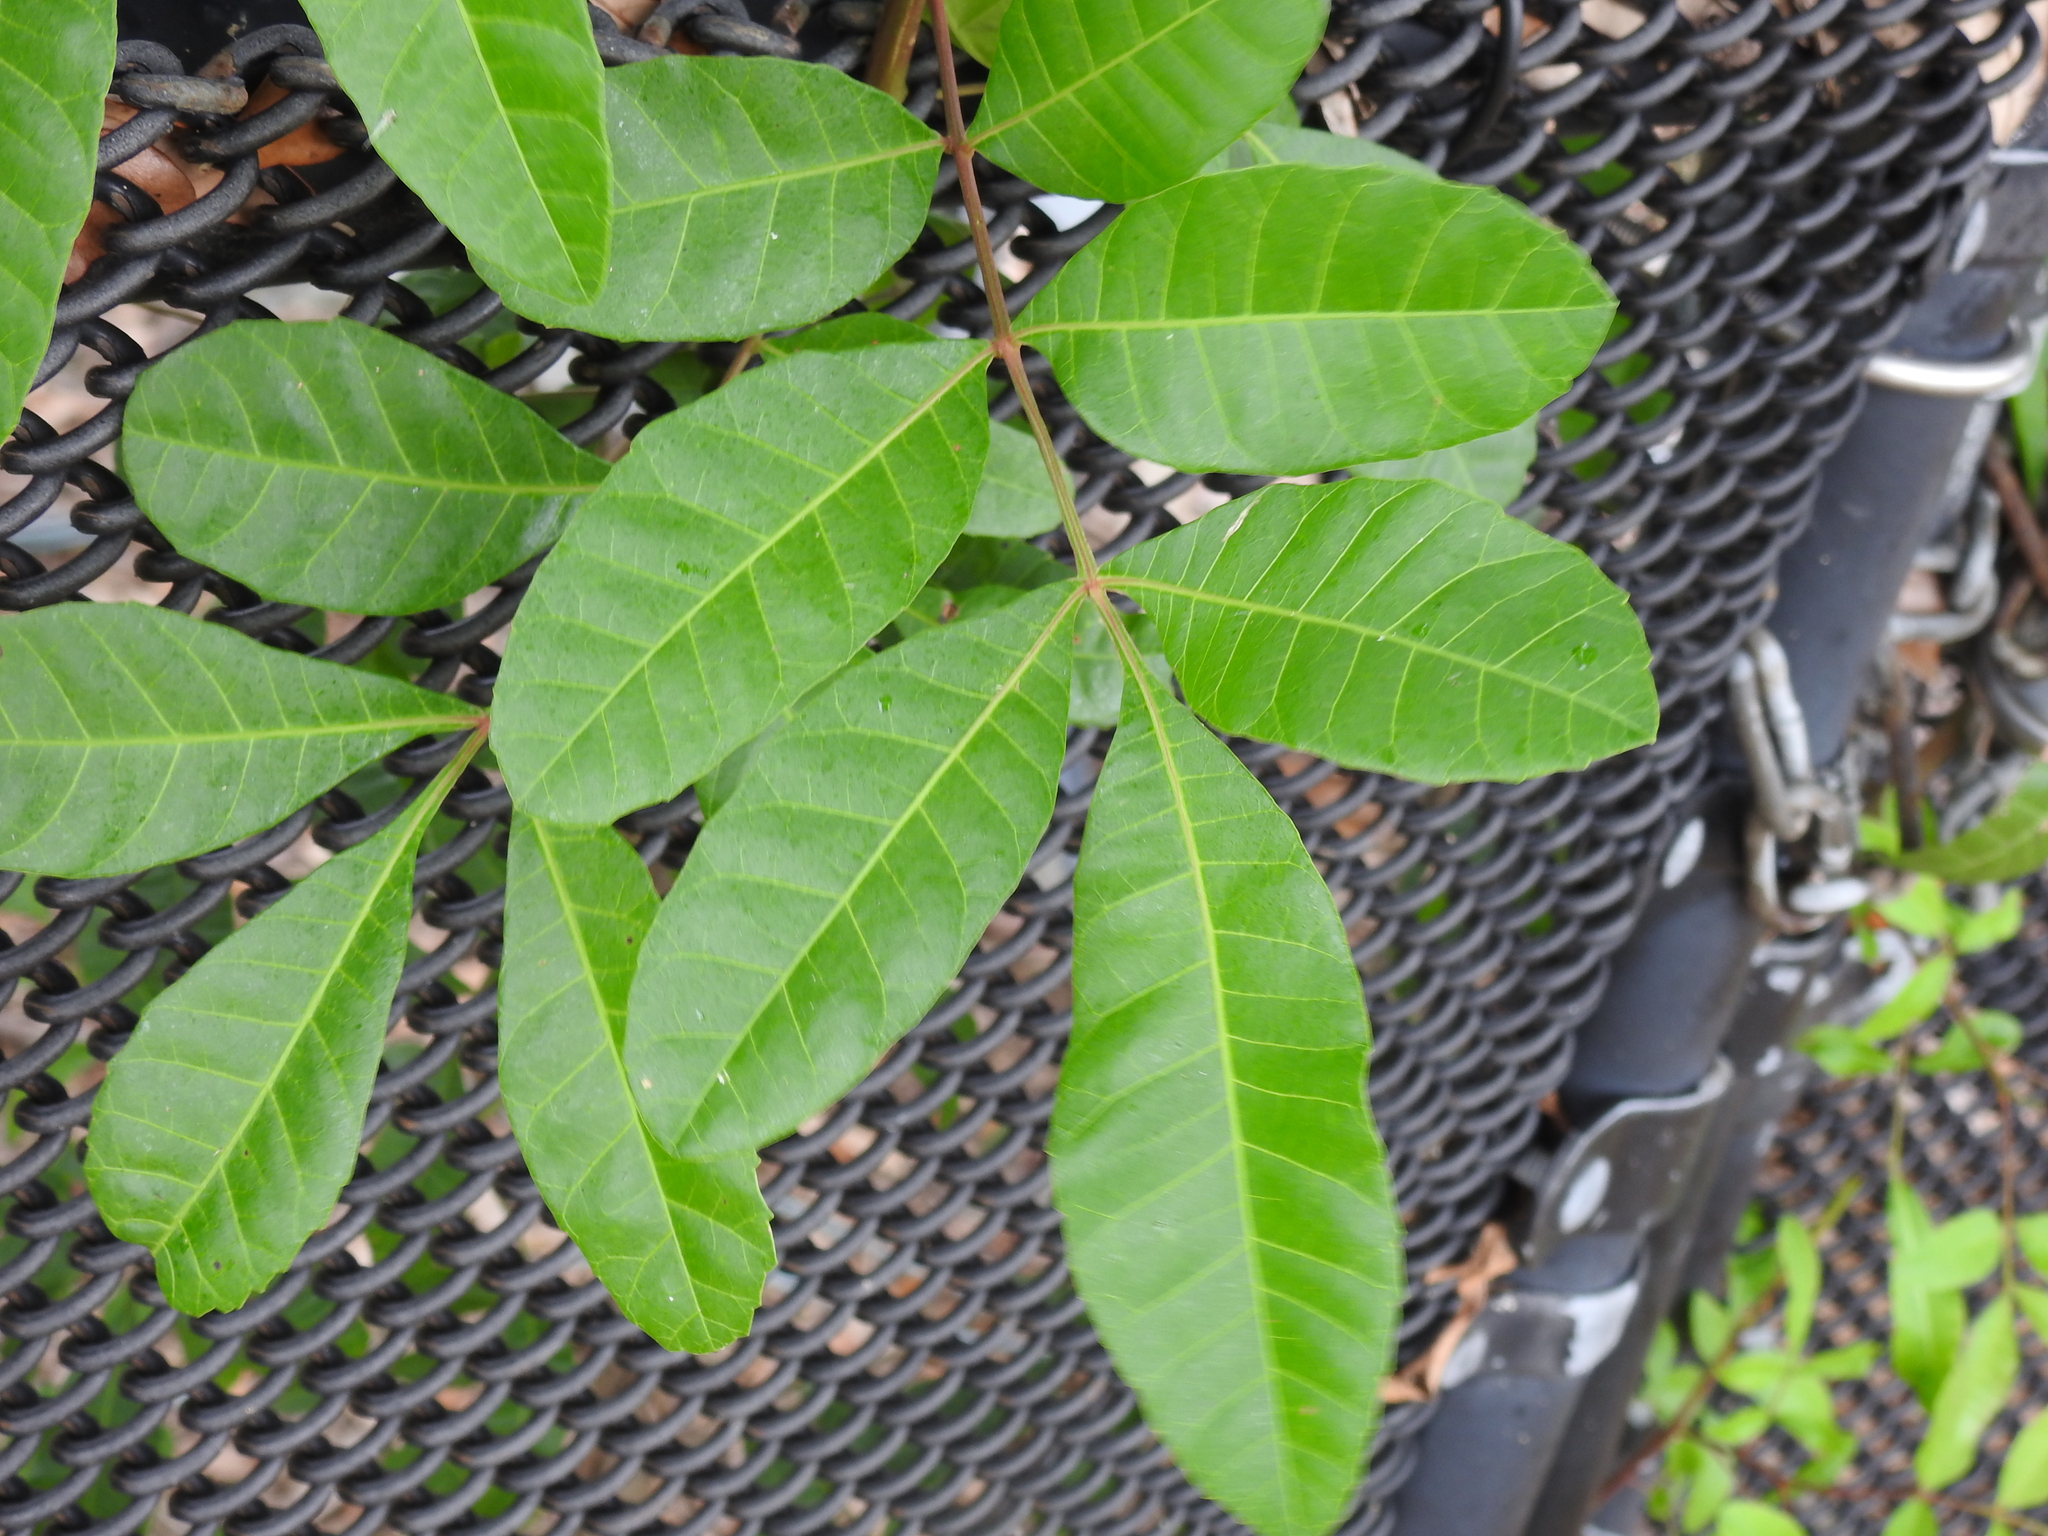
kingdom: Plantae
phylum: Tracheophyta
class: Magnoliopsida
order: Sapindales
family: Anacardiaceae
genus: Schinus
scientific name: Schinus terebinthifolia
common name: Brazilian peppertree
